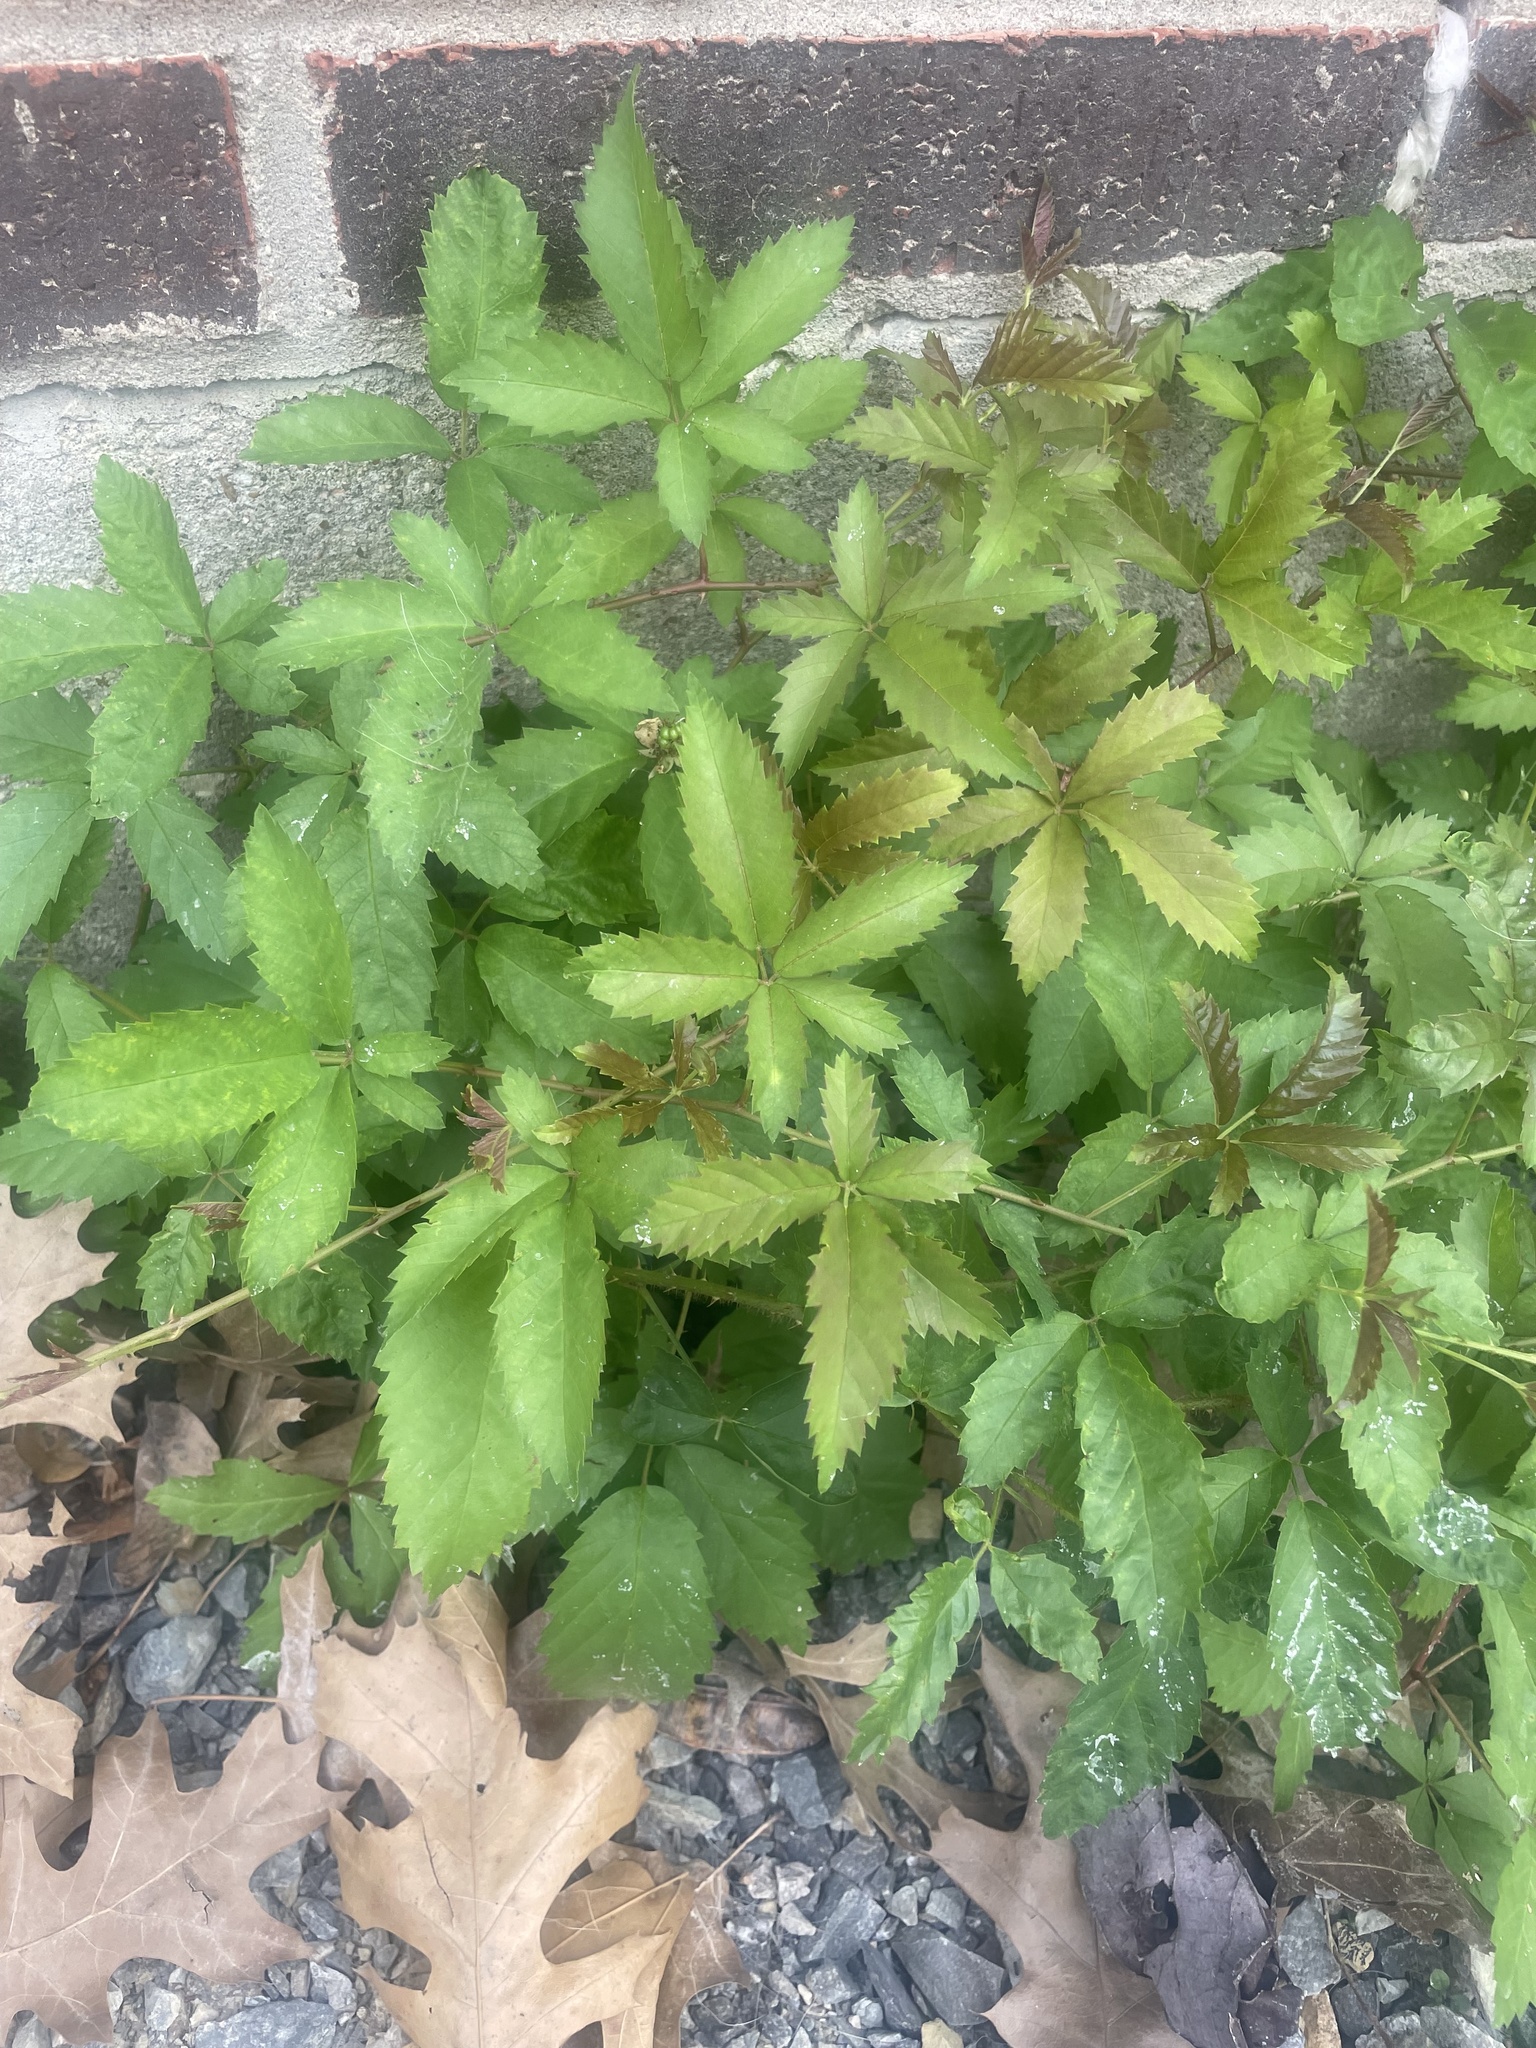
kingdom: Plantae
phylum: Tracheophyta
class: Magnoliopsida
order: Rosales
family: Rosaceae
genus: Rubus
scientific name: Rubus trivialis
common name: Southern dewberry
